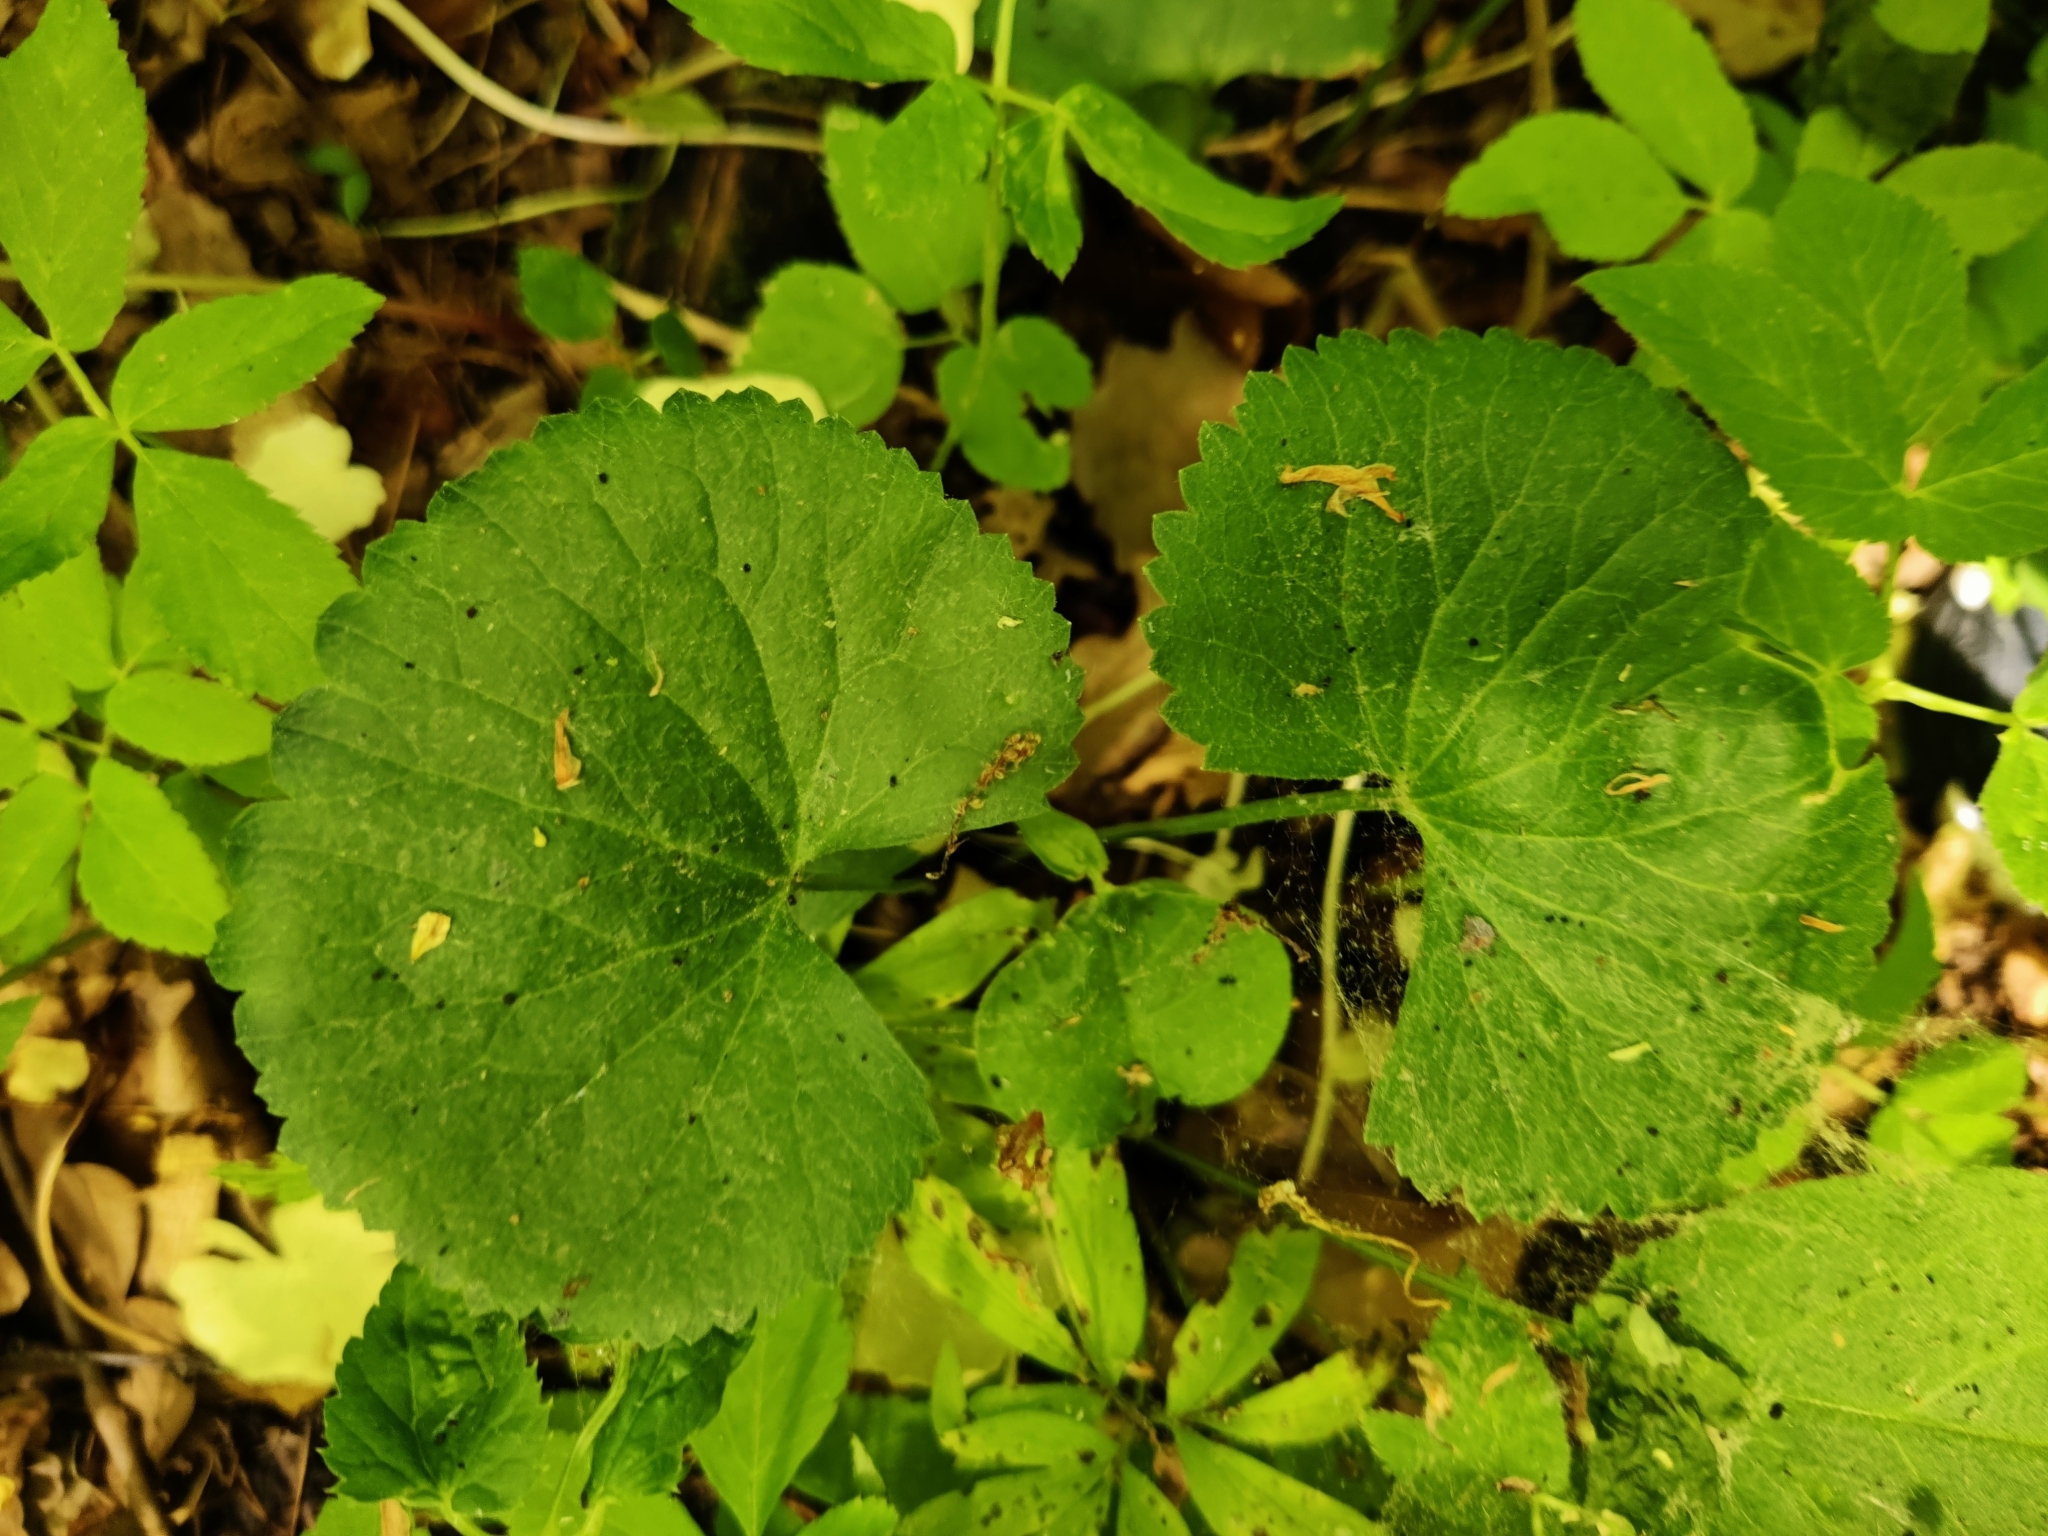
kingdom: Plantae
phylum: Tracheophyta
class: Magnoliopsida
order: Ranunculales
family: Ranunculaceae
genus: Ranunculus
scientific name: Ranunculus cassubicus
